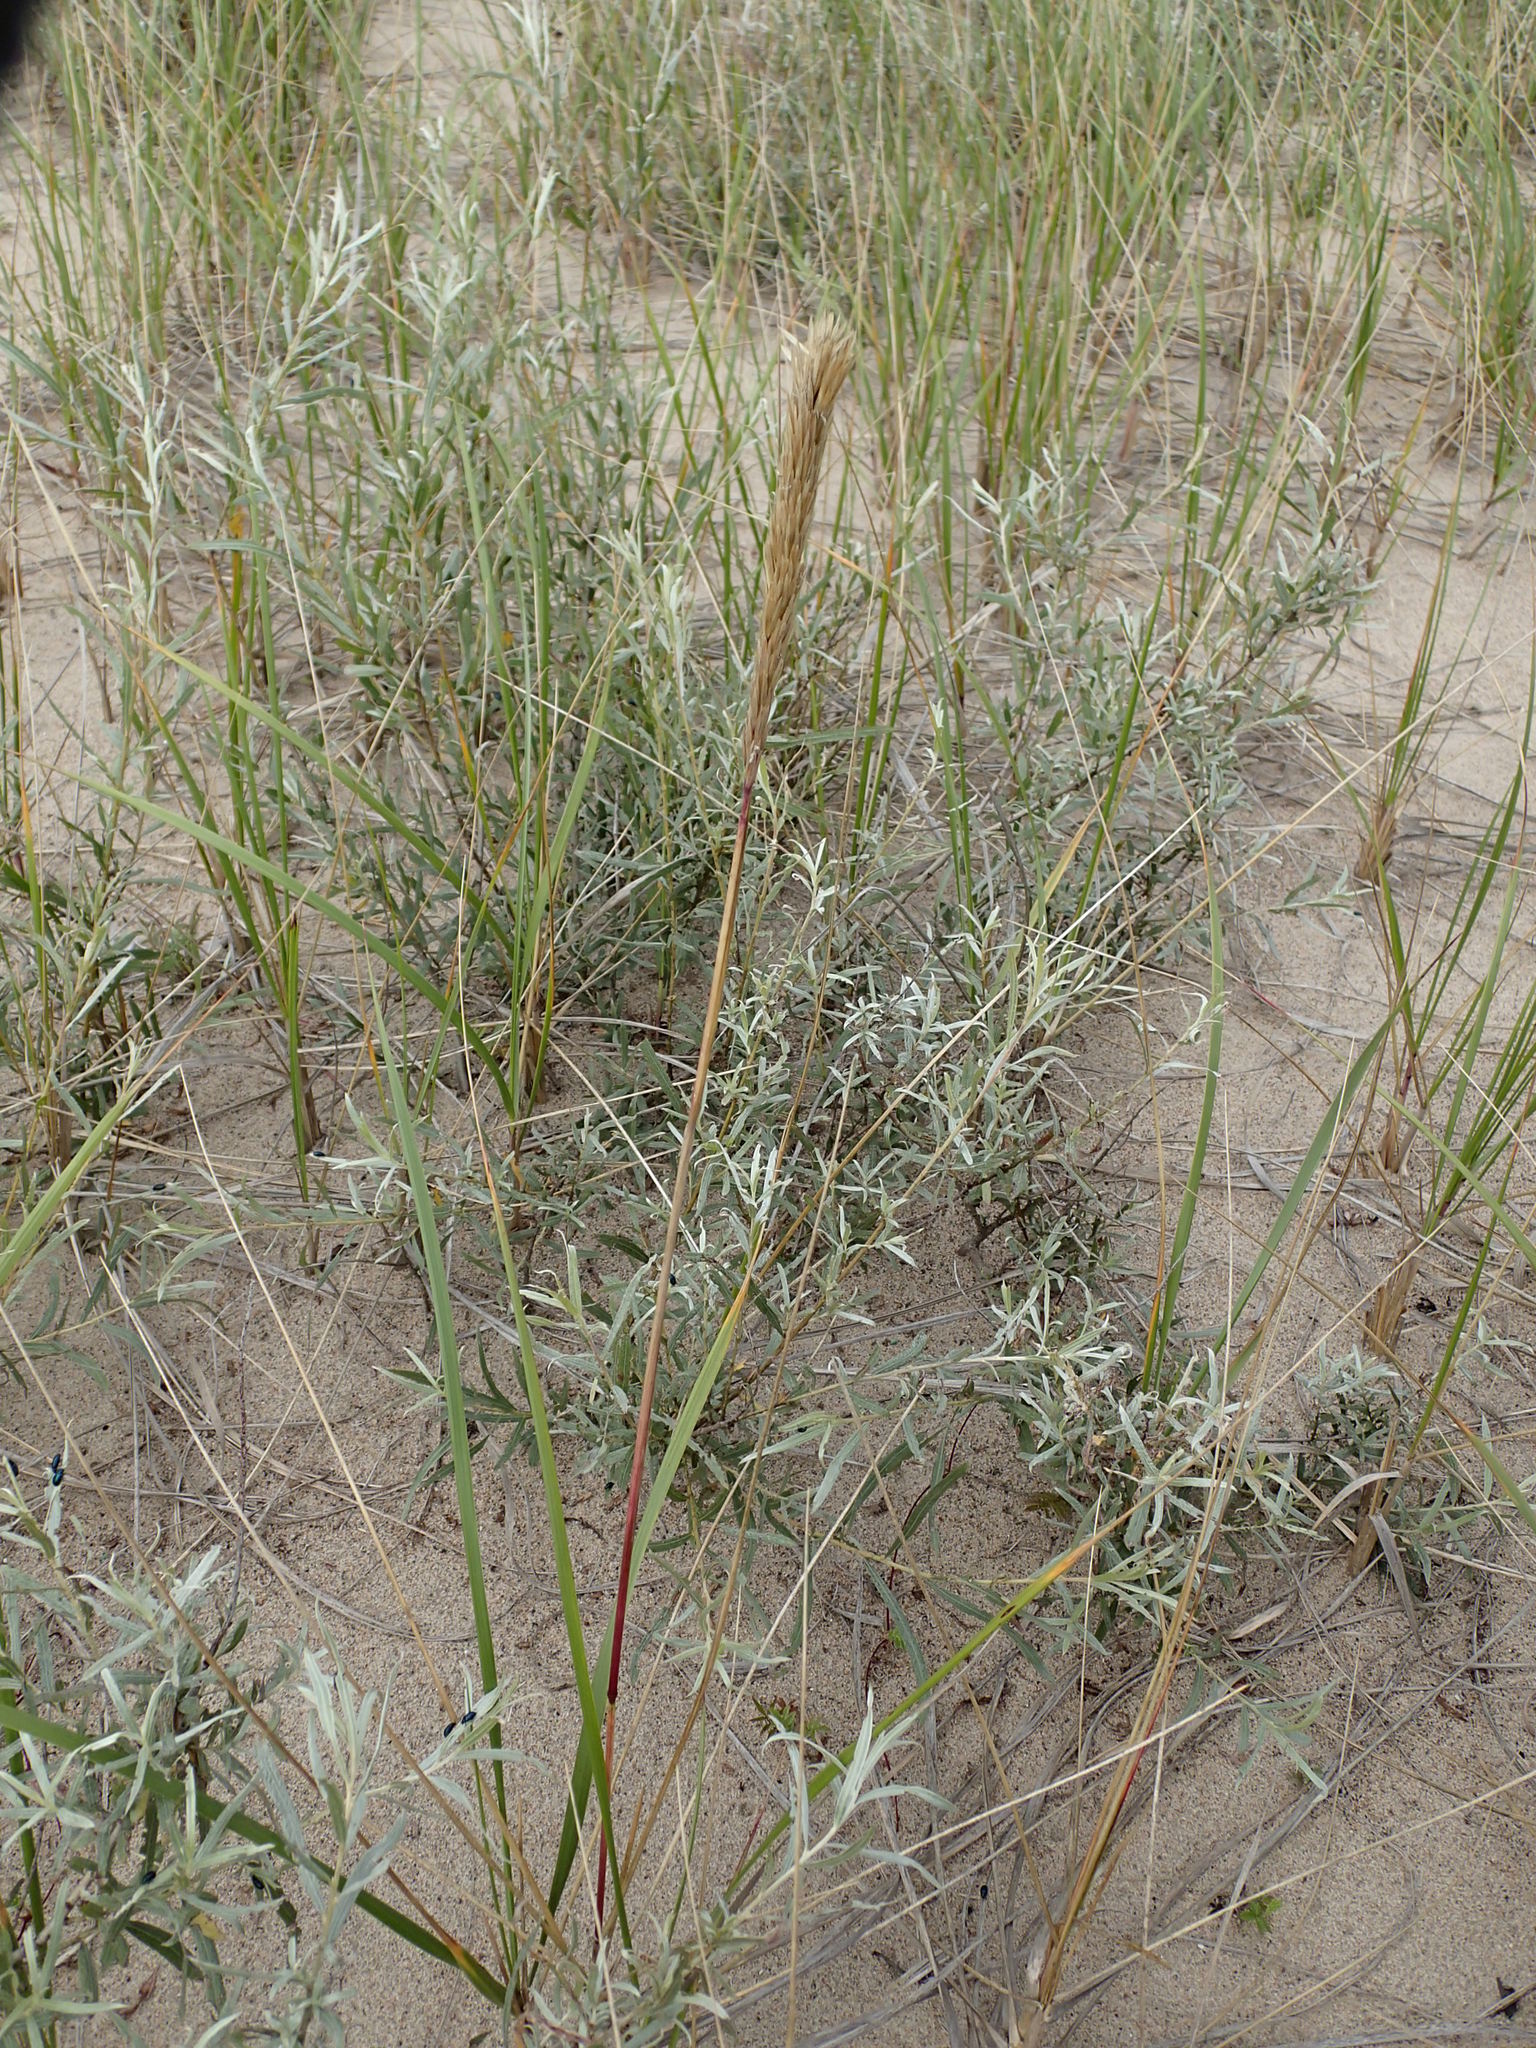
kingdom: Plantae
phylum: Tracheophyta
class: Liliopsida
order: Poales
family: Poaceae
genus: Calamagrostis
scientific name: Calamagrostis breviligulata
